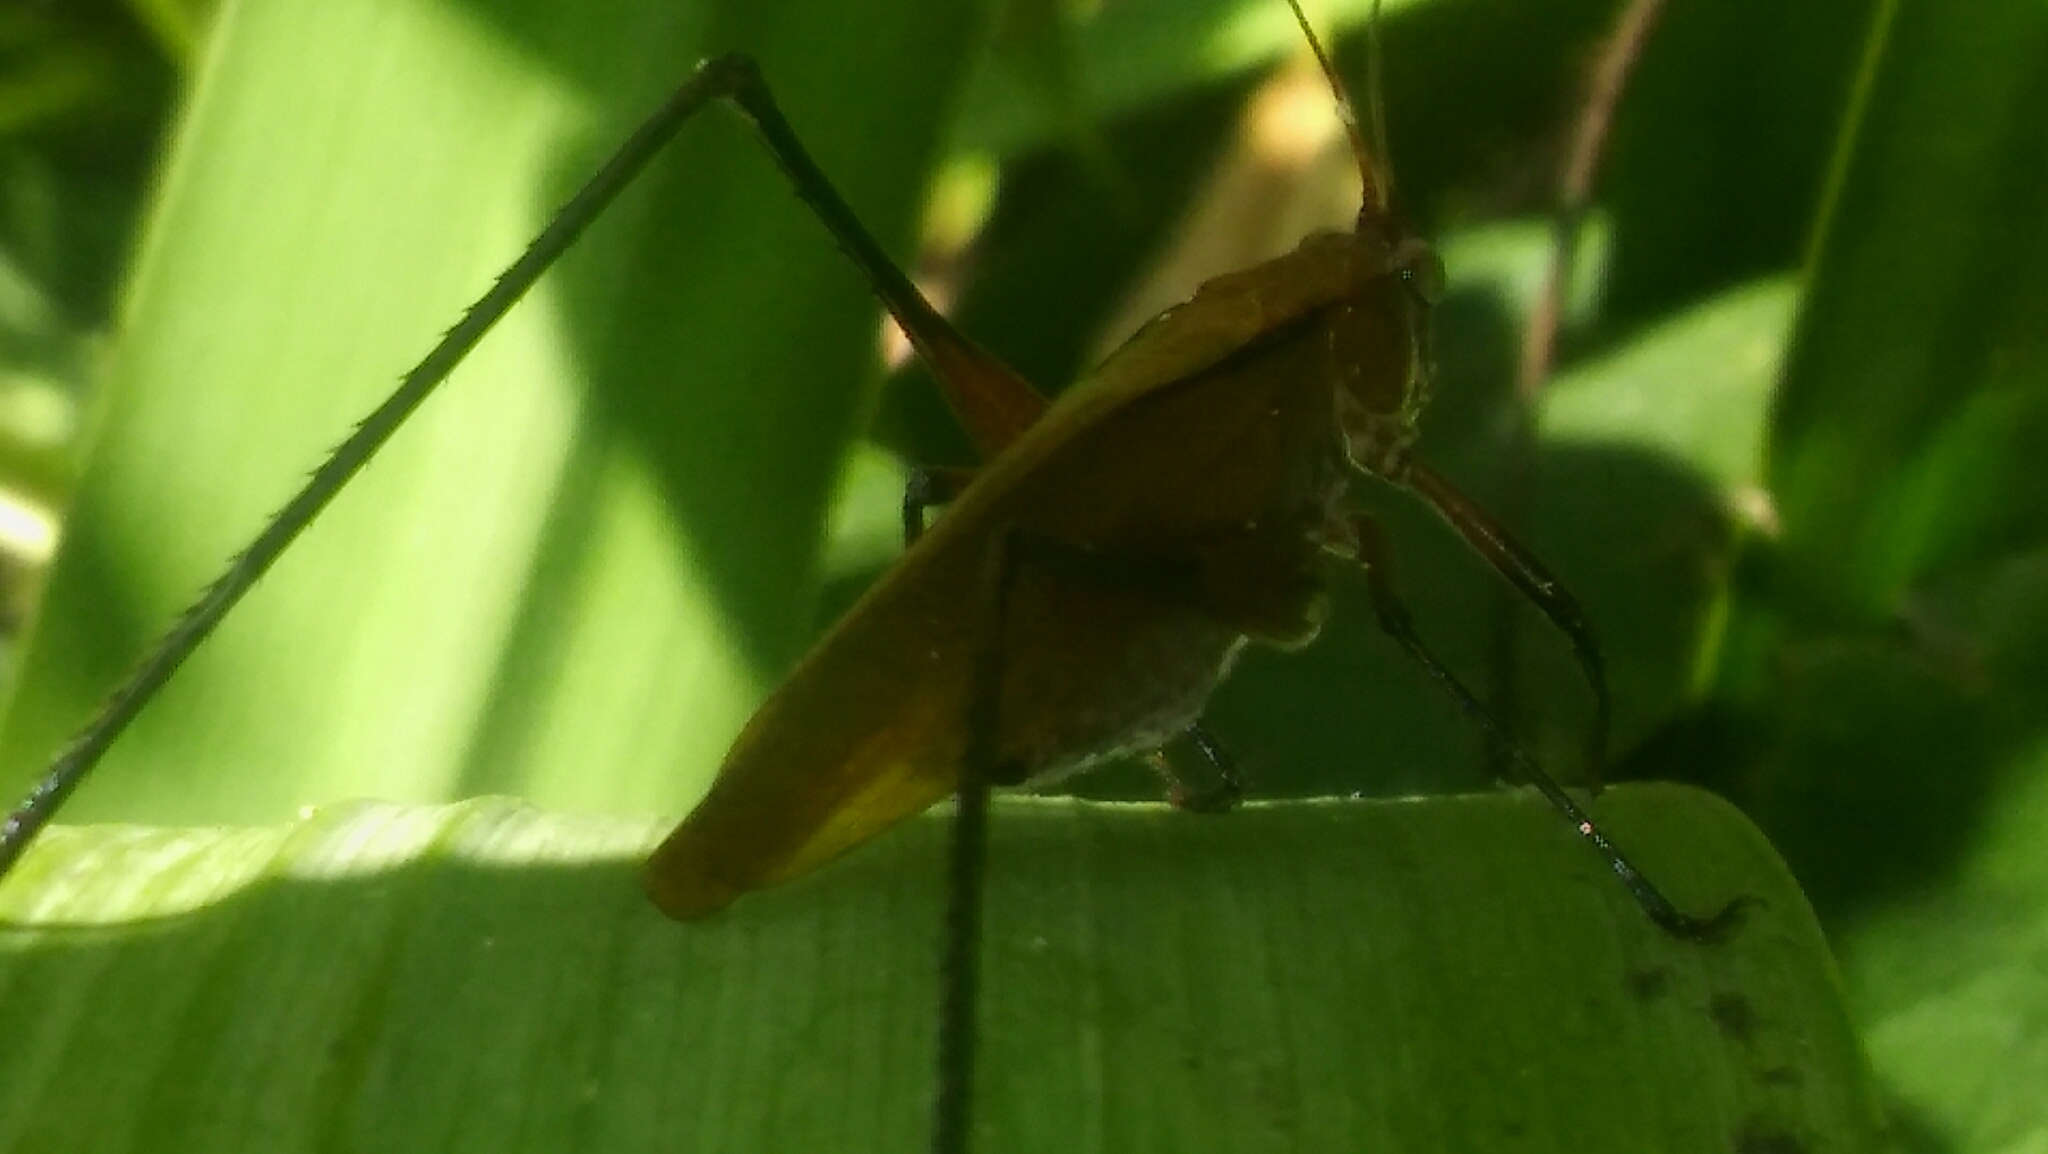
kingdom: Animalia
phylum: Arthropoda
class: Insecta
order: Orthoptera
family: Tettigoniidae
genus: Theudoria
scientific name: Theudoria melanocnemis
